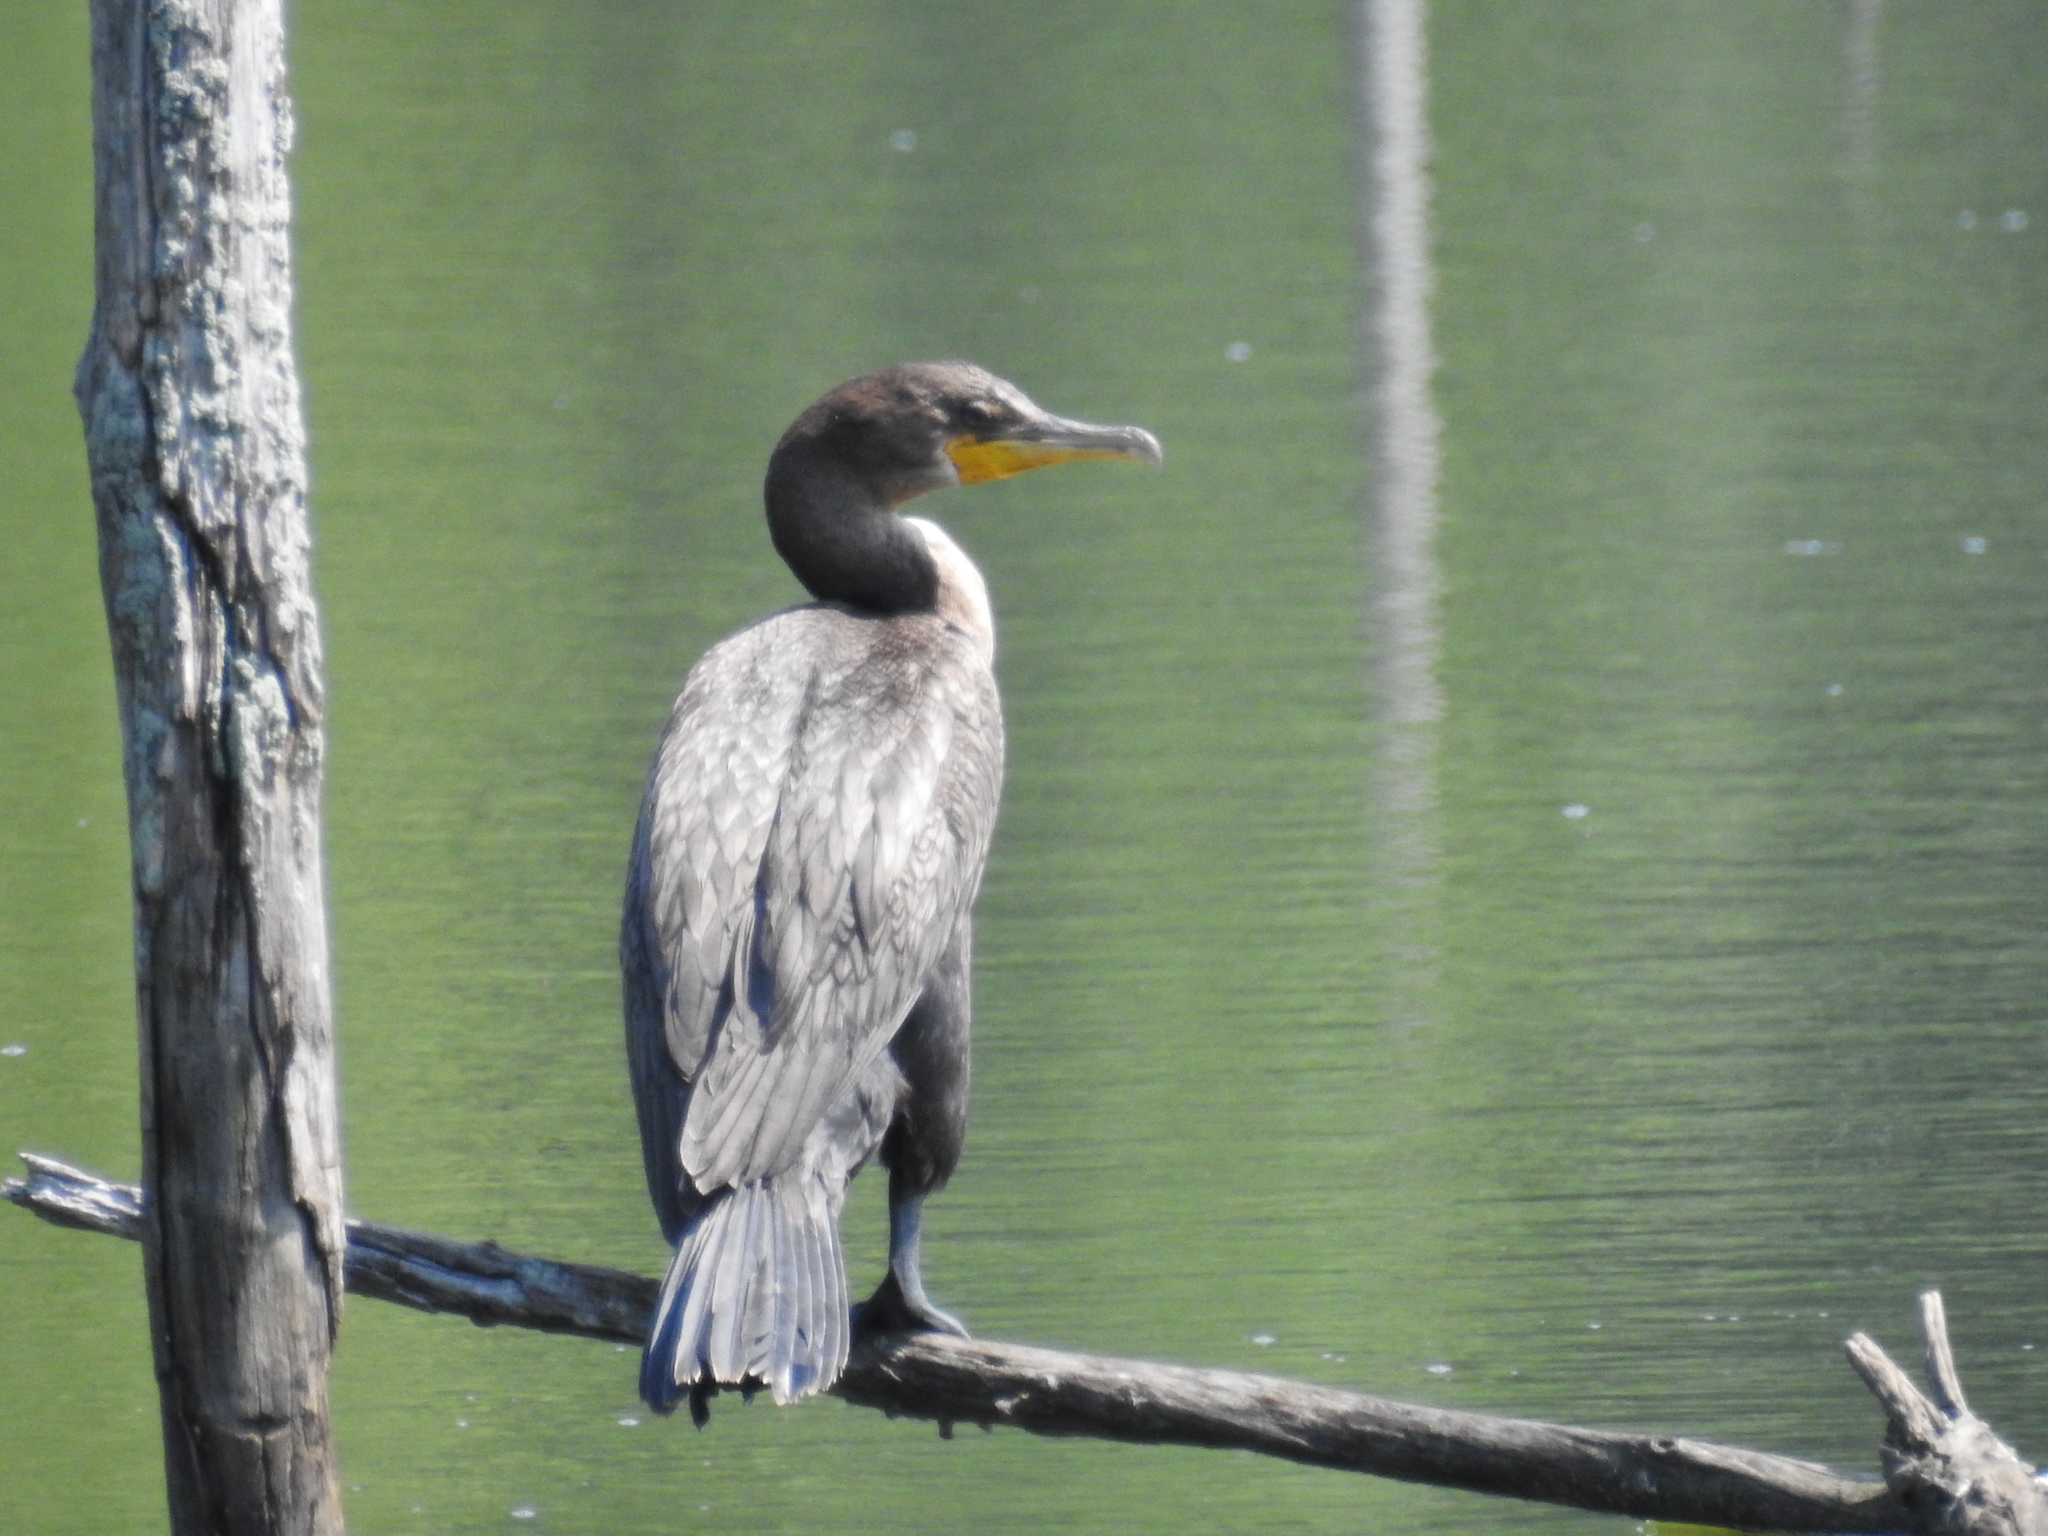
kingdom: Animalia
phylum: Chordata
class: Aves
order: Suliformes
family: Phalacrocoracidae
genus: Phalacrocorax
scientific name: Phalacrocorax auritus
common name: Double-crested cormorant
